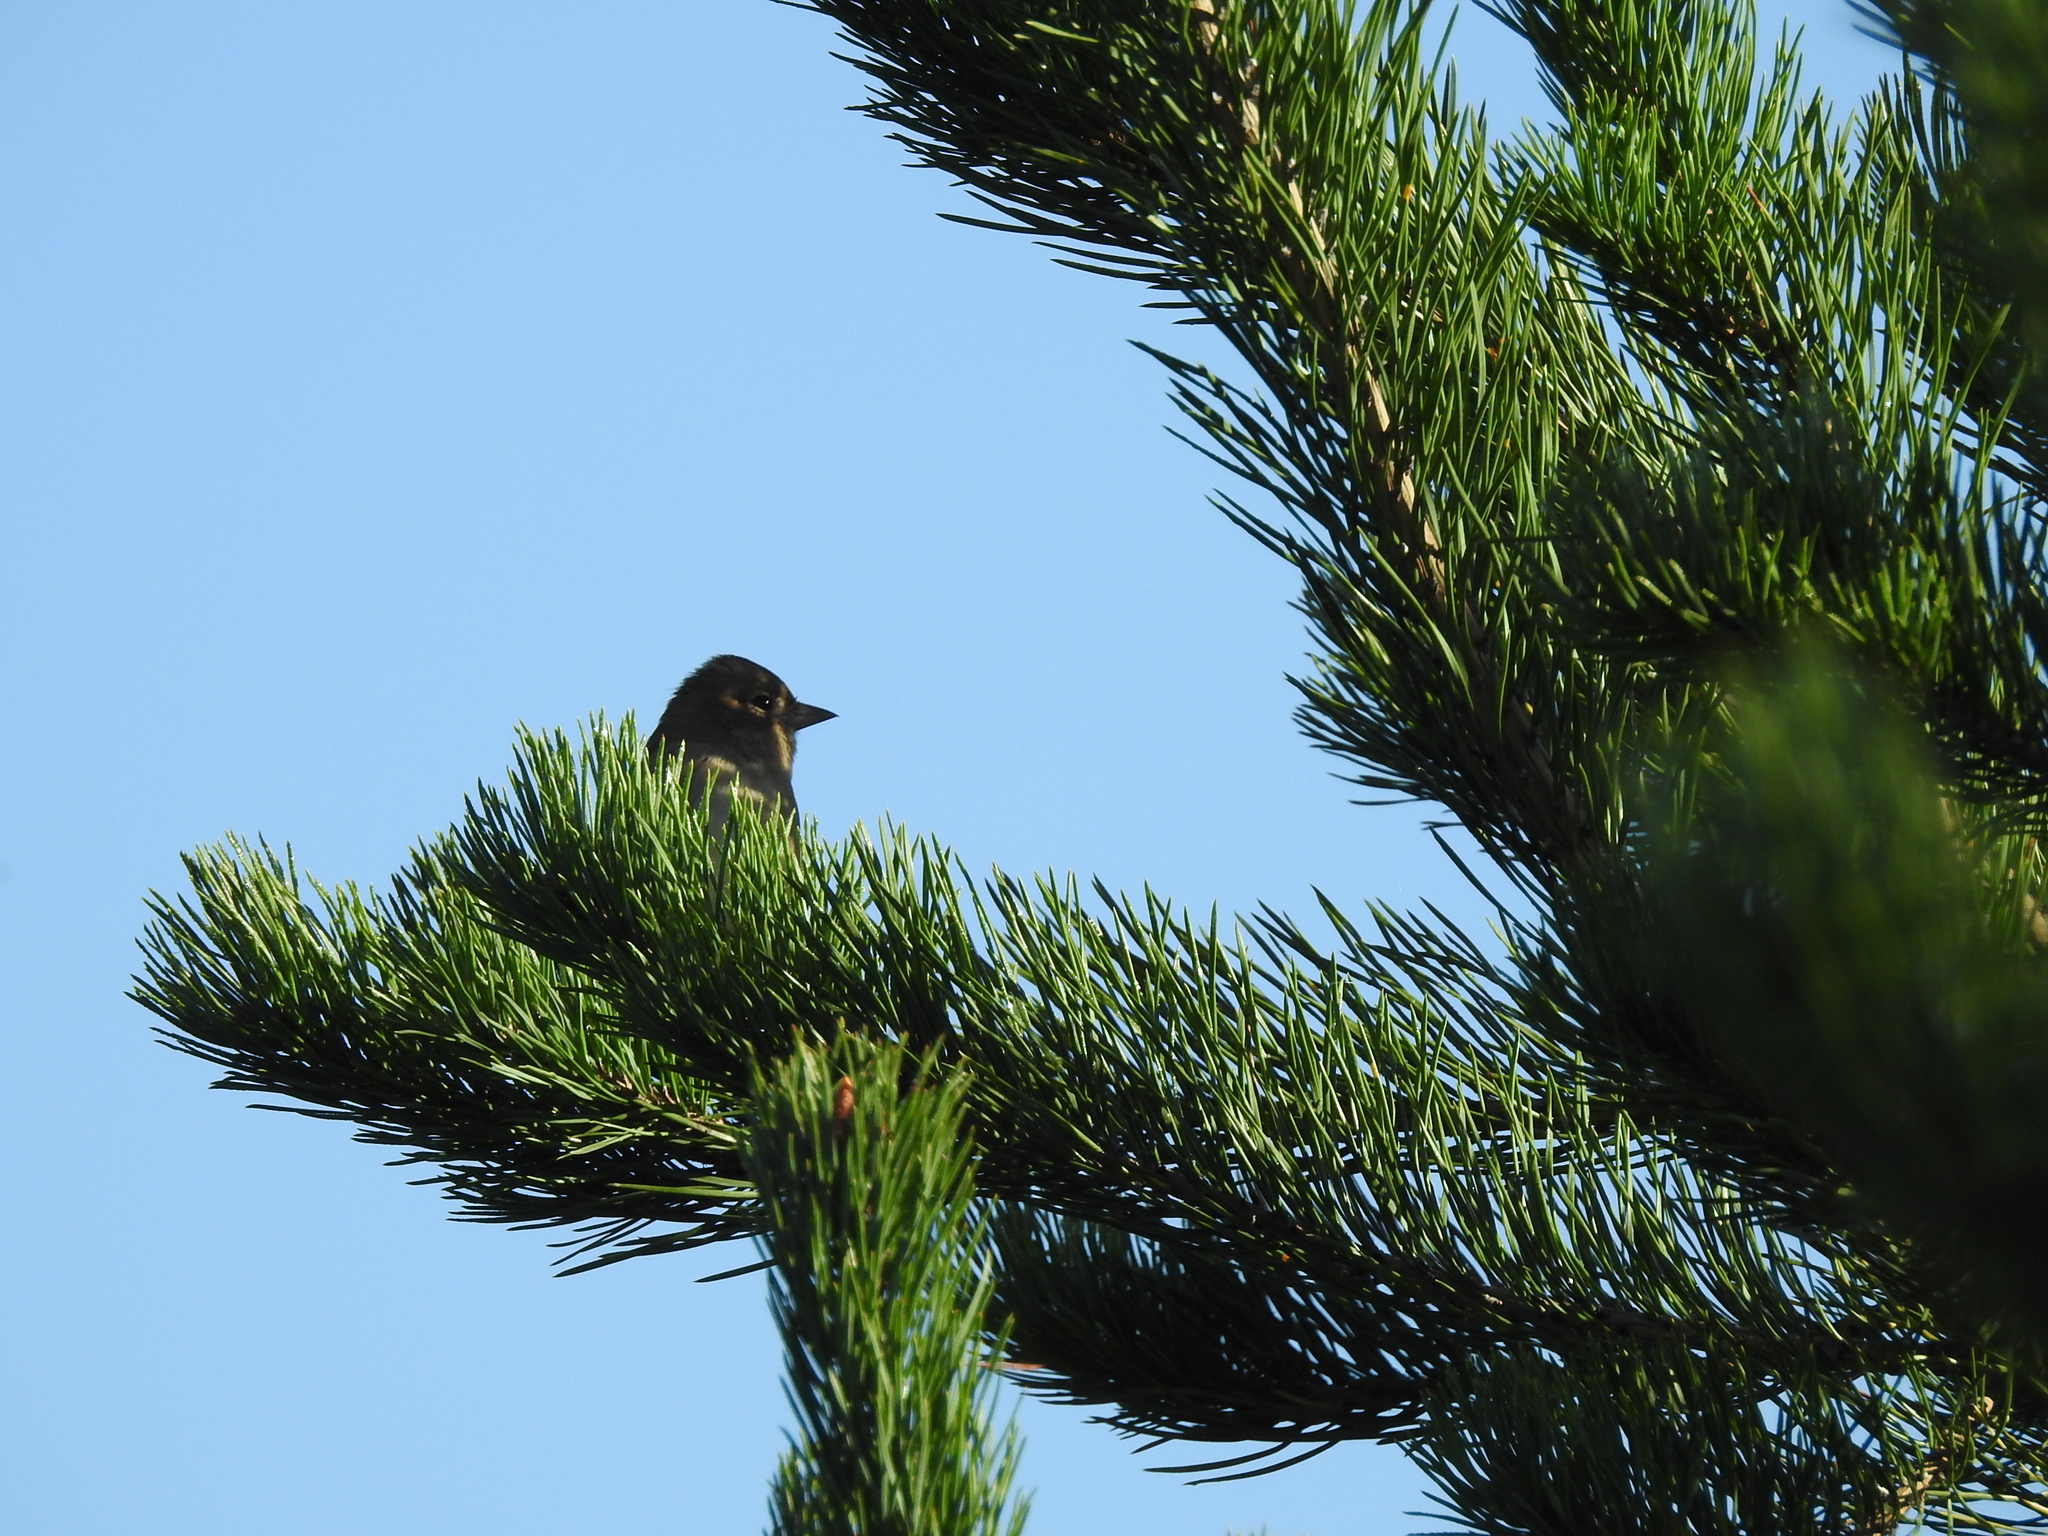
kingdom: Animalia
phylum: Chordata
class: Aves
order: Passeriformes
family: Fringillidae
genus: Fringilla
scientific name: Fringilla coelebs
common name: Common chaffinch
